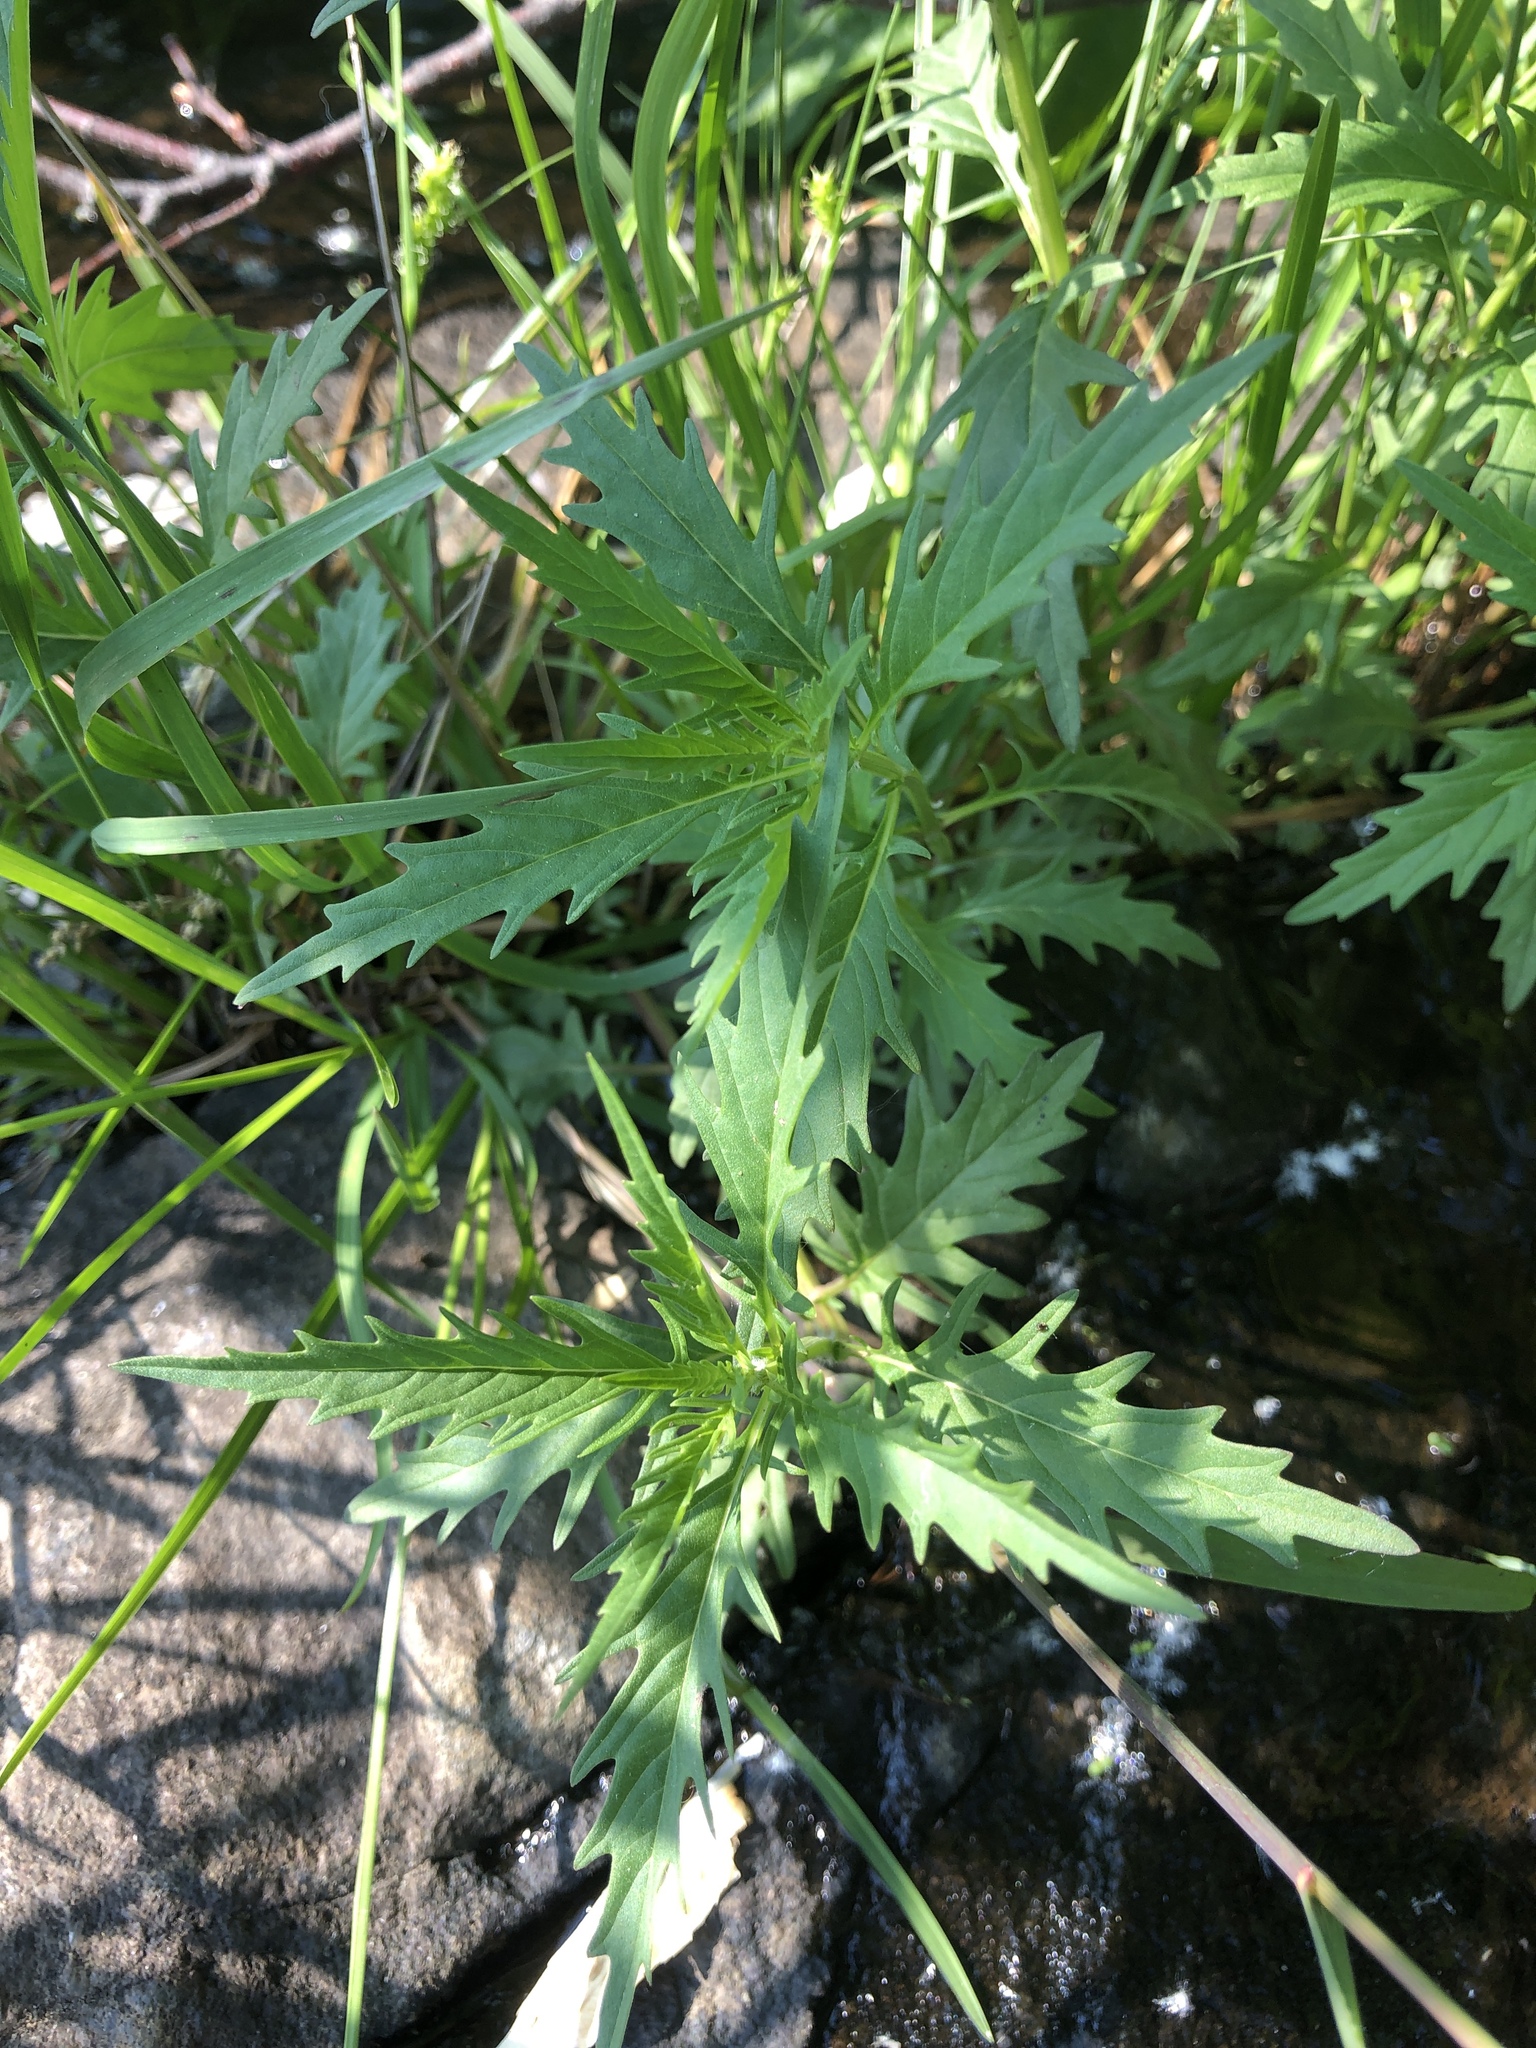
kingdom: Plantae
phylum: Tracheophyta
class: Magnoliopsida
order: Lamiales
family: Lamiaceae
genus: Lycopus
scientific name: Lycopus americanus
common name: American bugleweed
